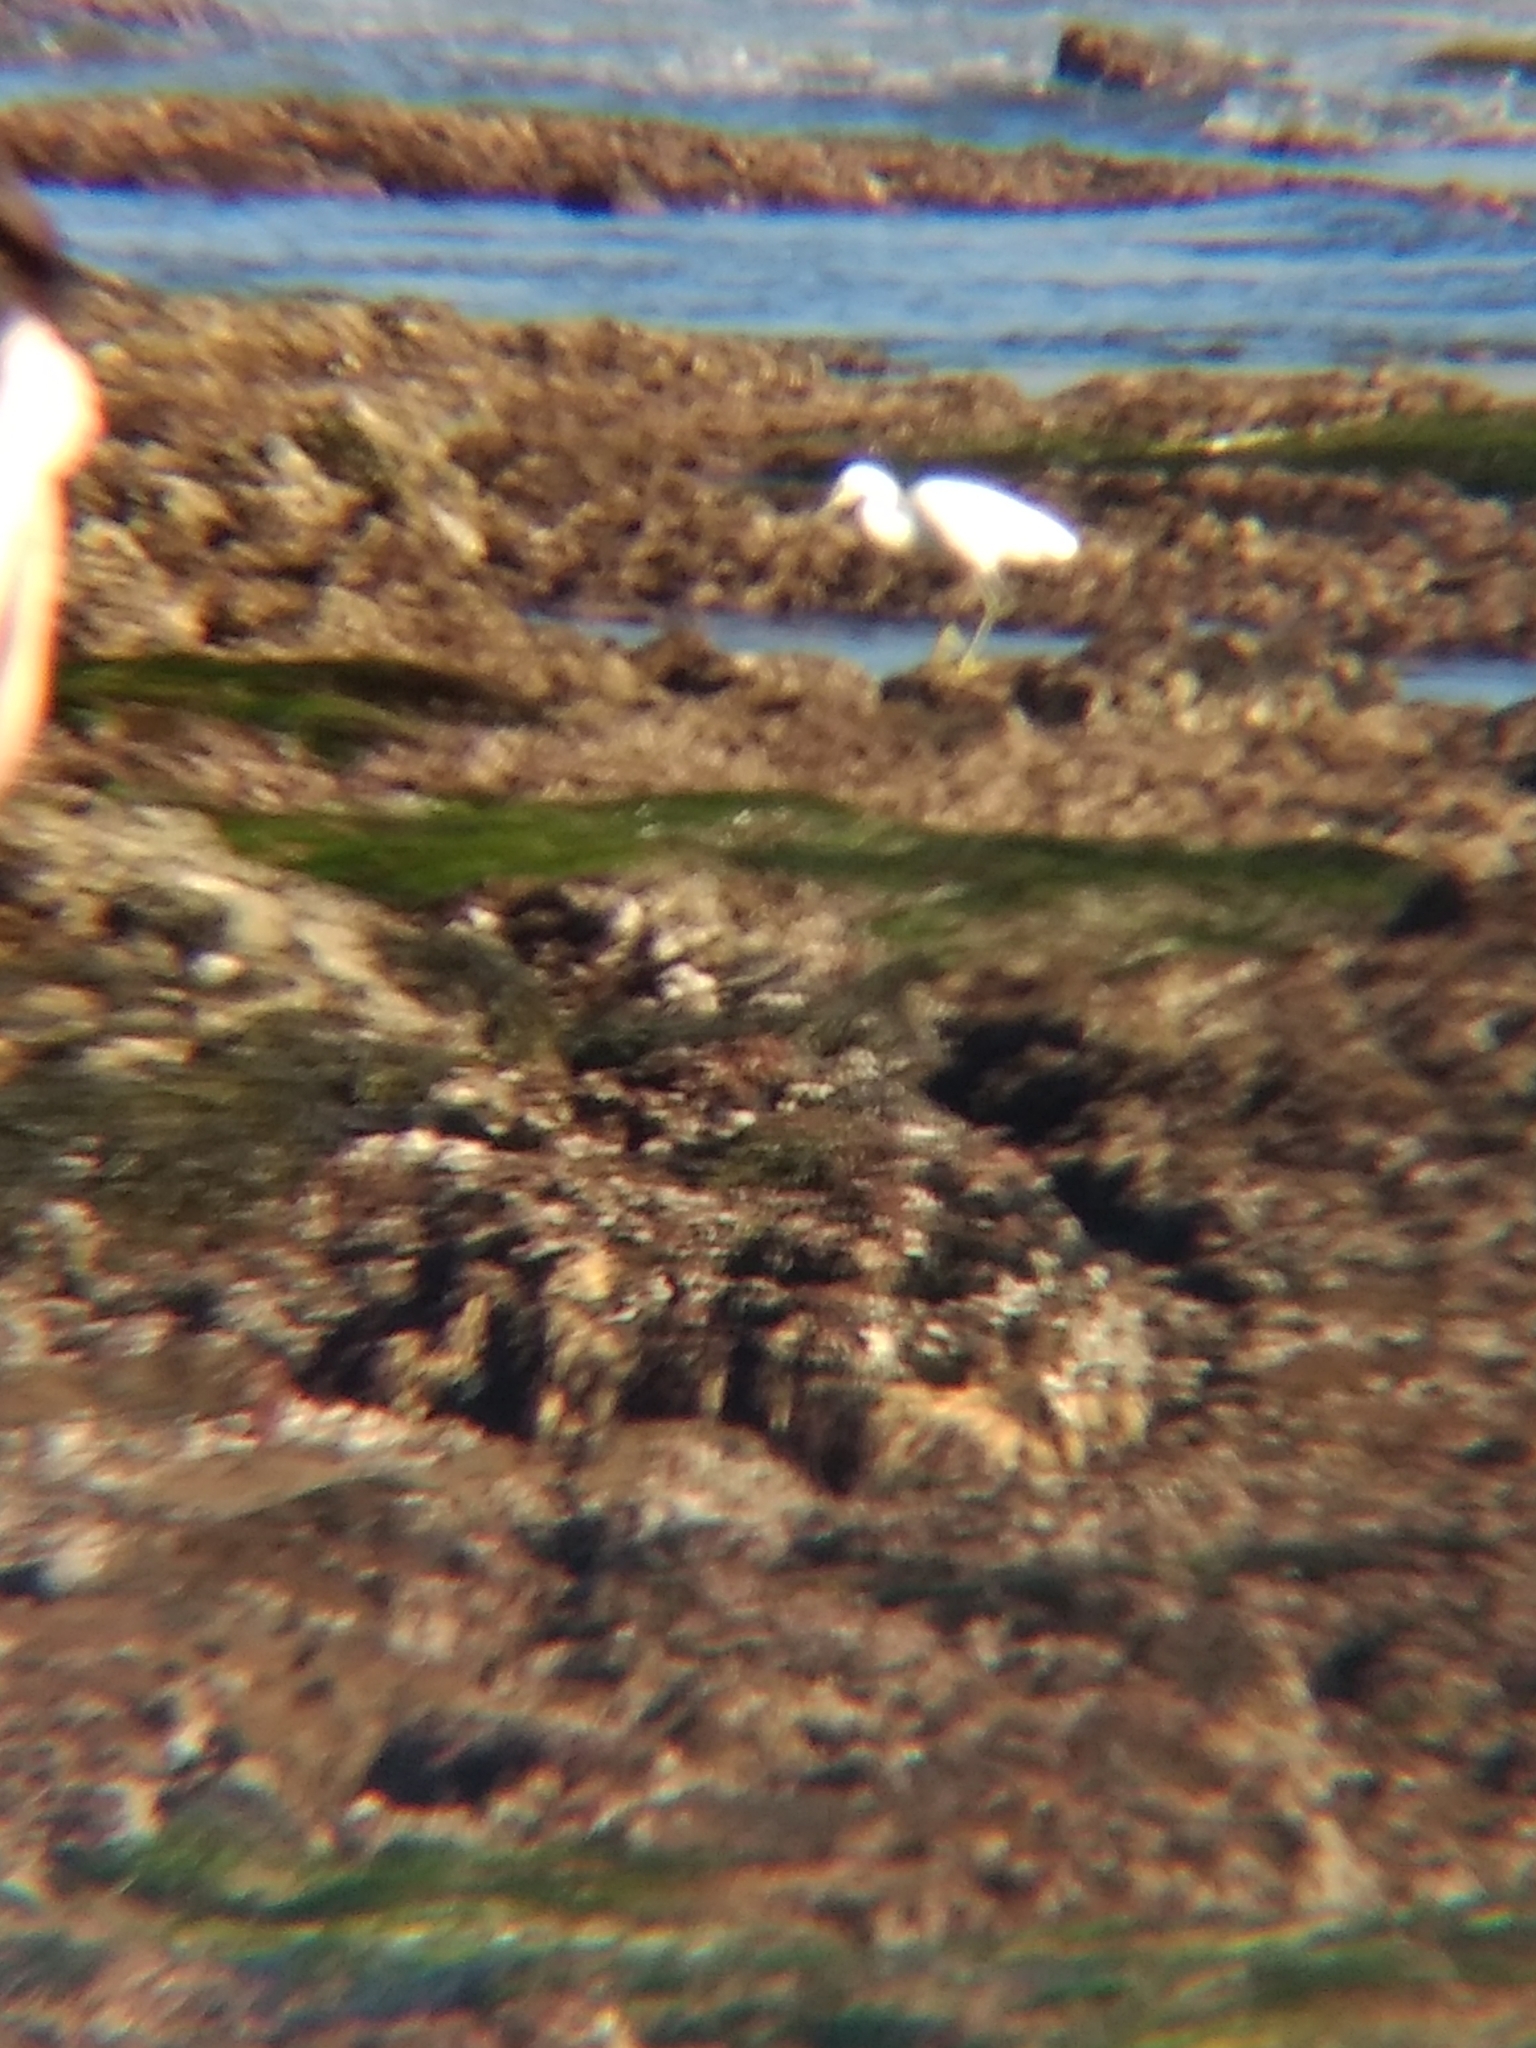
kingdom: Animalia
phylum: Chordata
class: Aves
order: Pelecaniformes
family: Ardeidae
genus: Egretta
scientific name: Egretta thula
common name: Snowy egret
